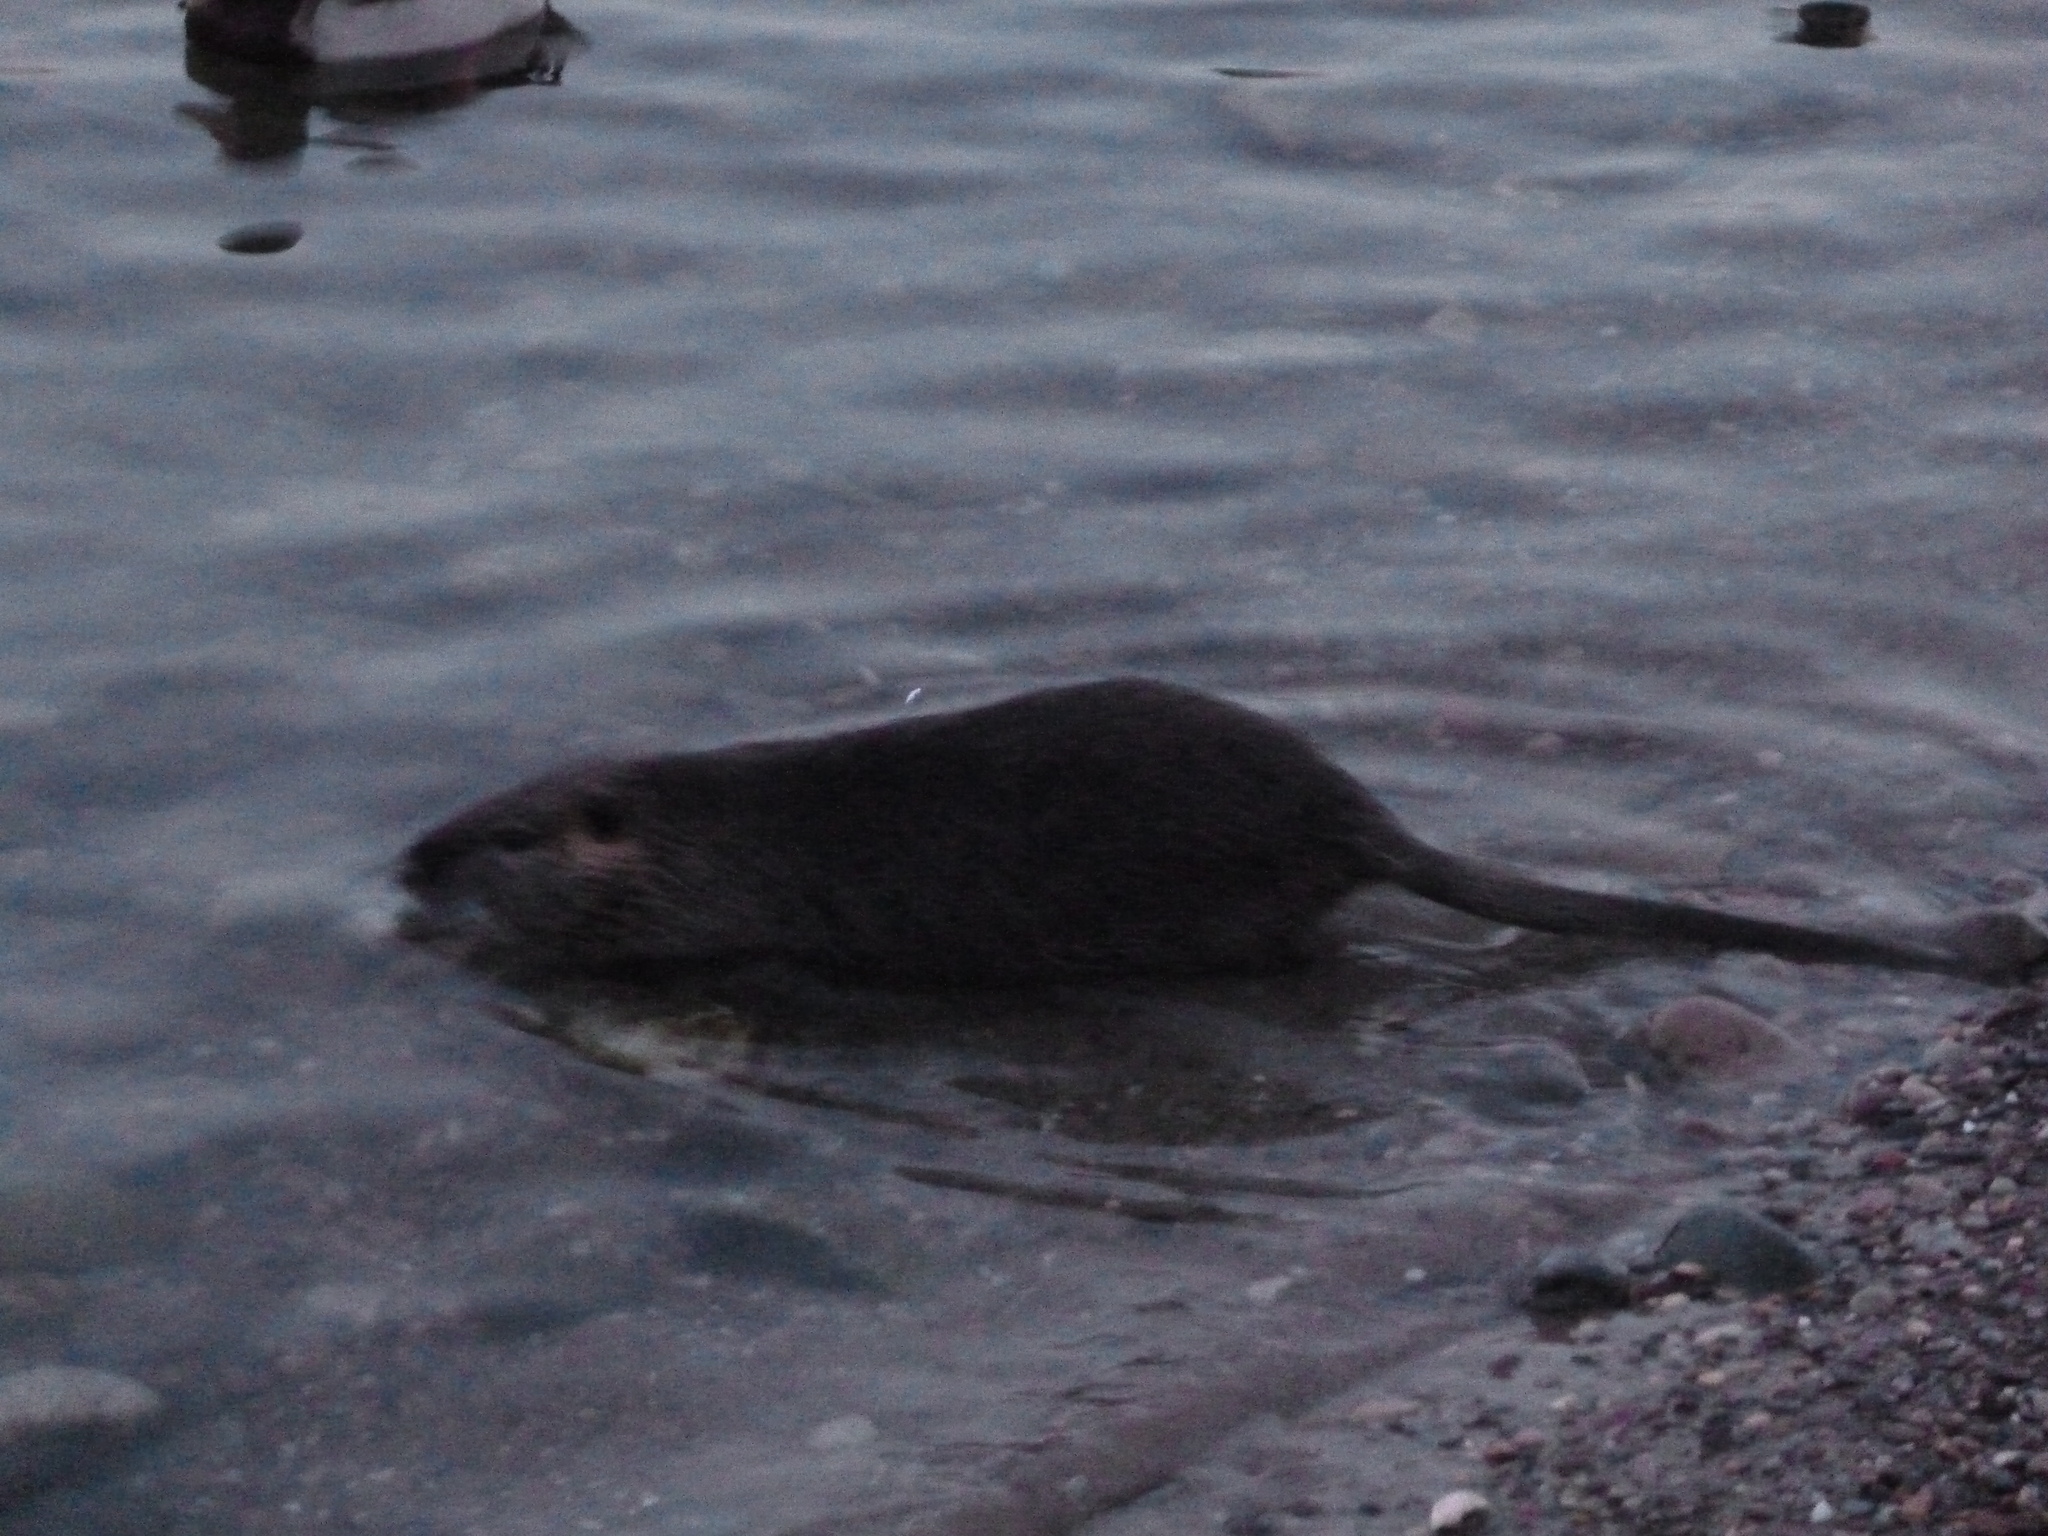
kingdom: Animalia
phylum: Chordata
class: Mammalia
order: Rodentia
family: Myocastoridae
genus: Myocastor
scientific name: Myocastor coypus
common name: Coypu
